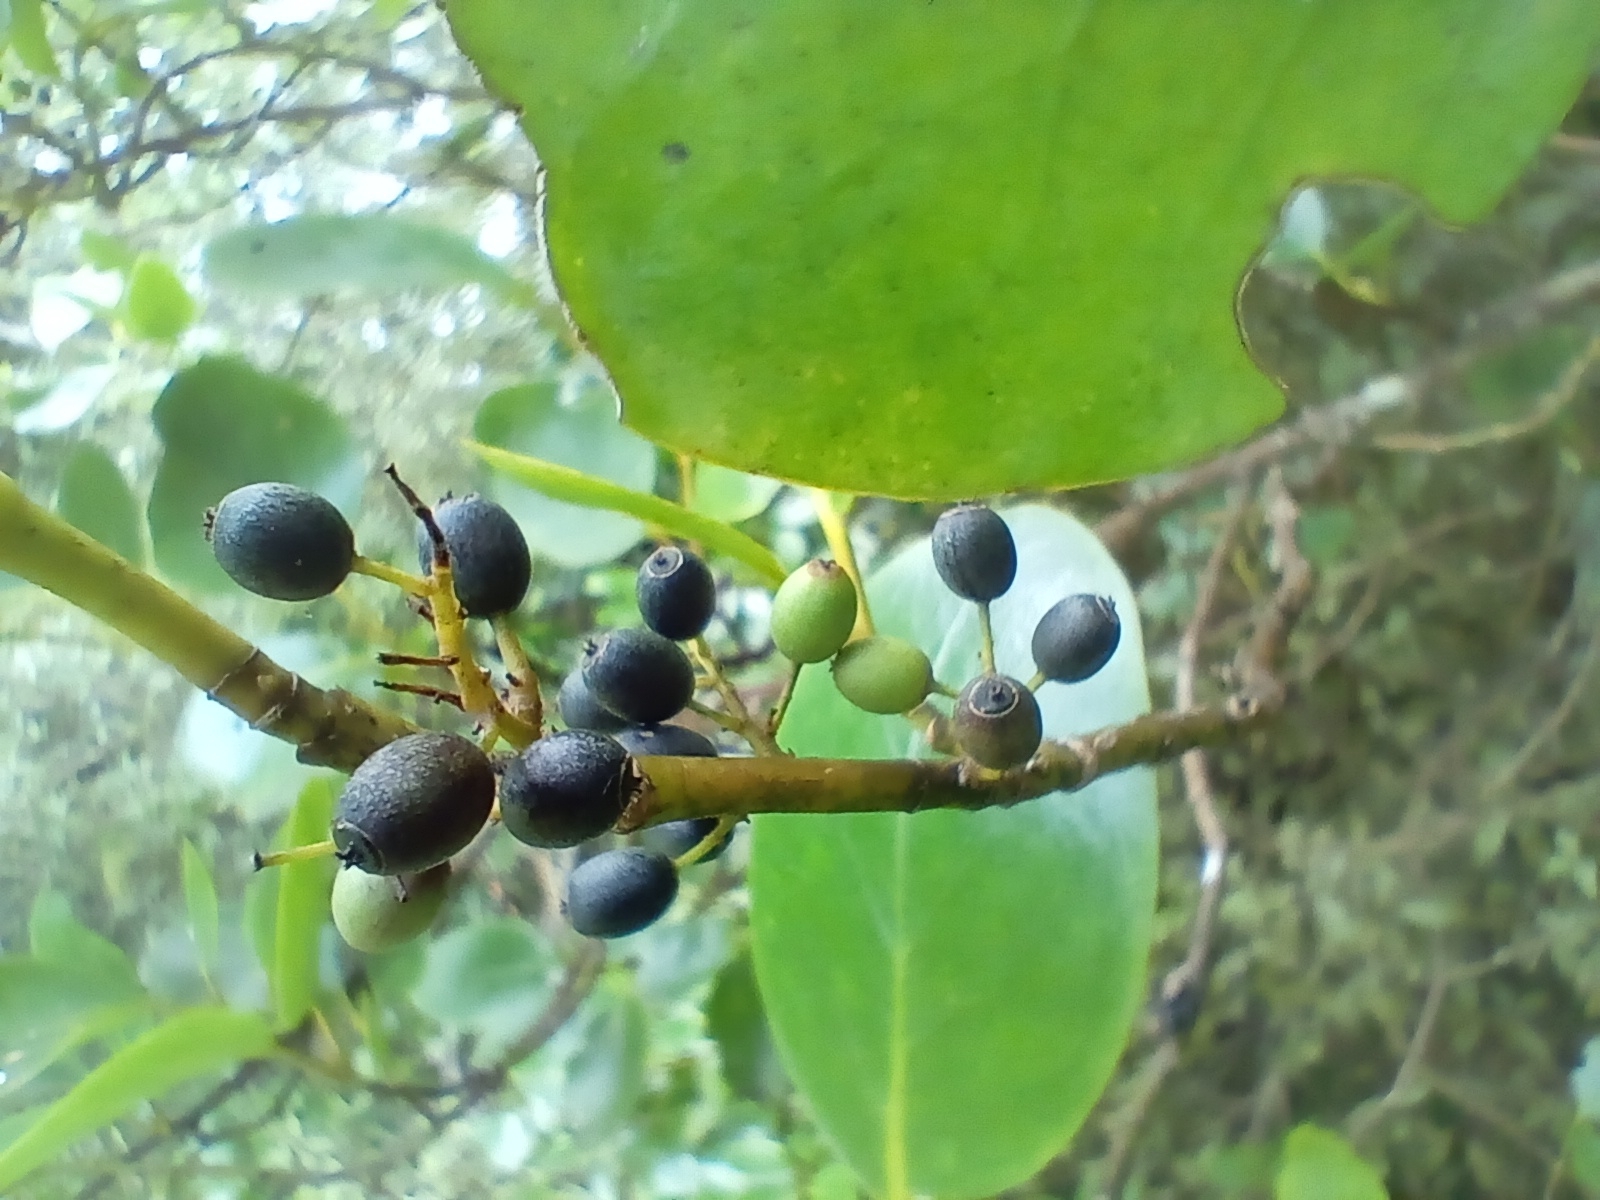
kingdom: Plantae
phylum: Tracheophyta
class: Magnoliopsida
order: Apiales
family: Griseliniaceae
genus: Griselinia
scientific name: Griselinia littoralis
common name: New zealand broadleaf
